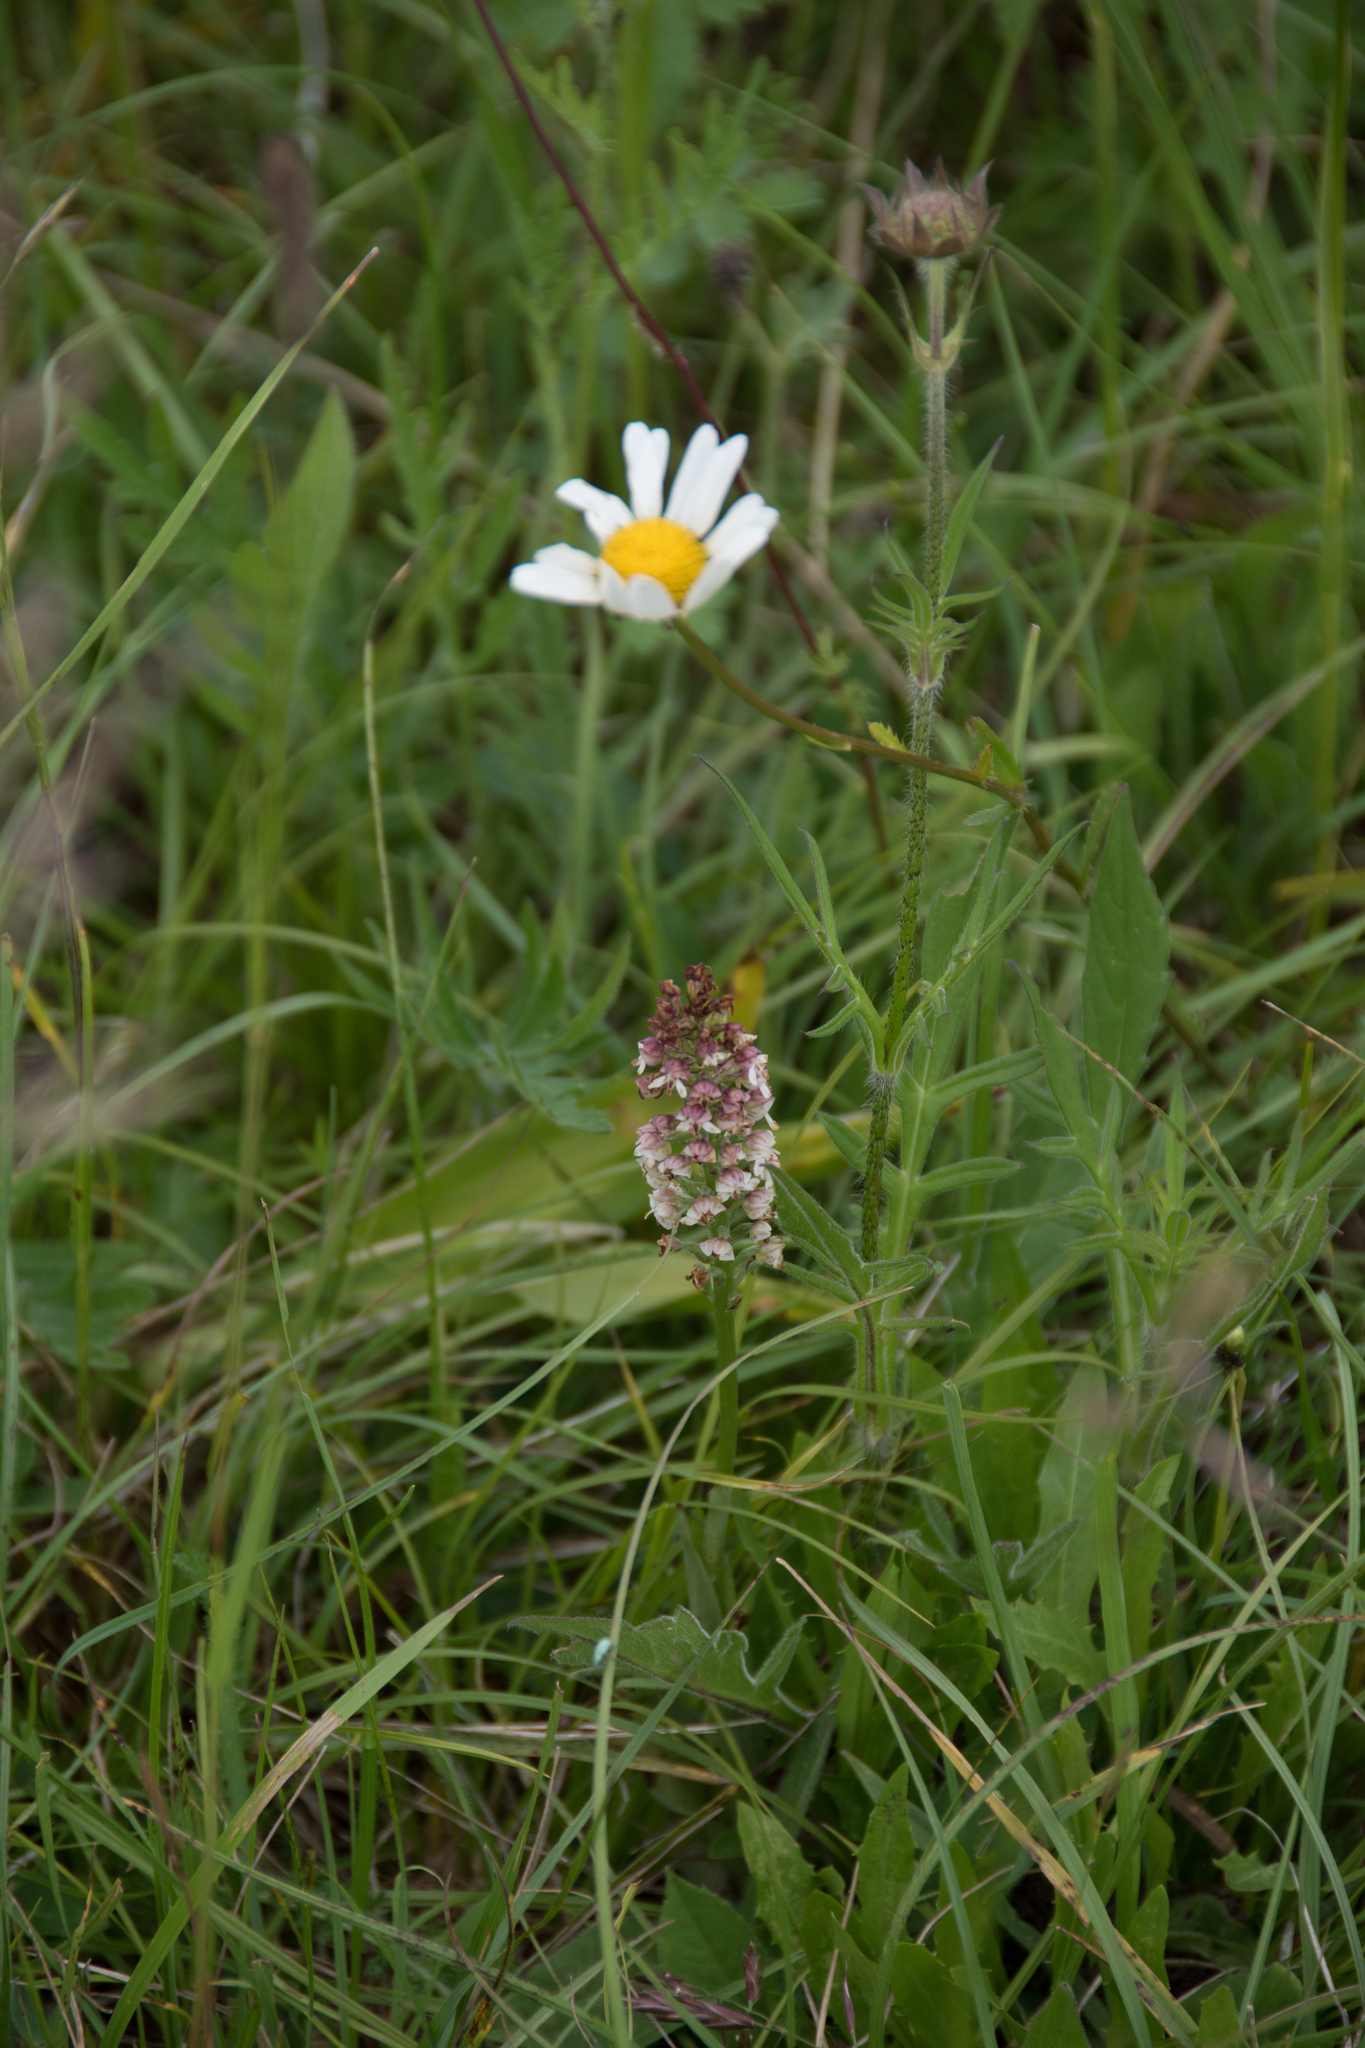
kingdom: Plantae
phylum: Tracheophyta
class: Liliopsida
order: Asparagales
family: Orchidaceae
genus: Neotinea
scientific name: Neotinea ustulata
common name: Burnt orchid
